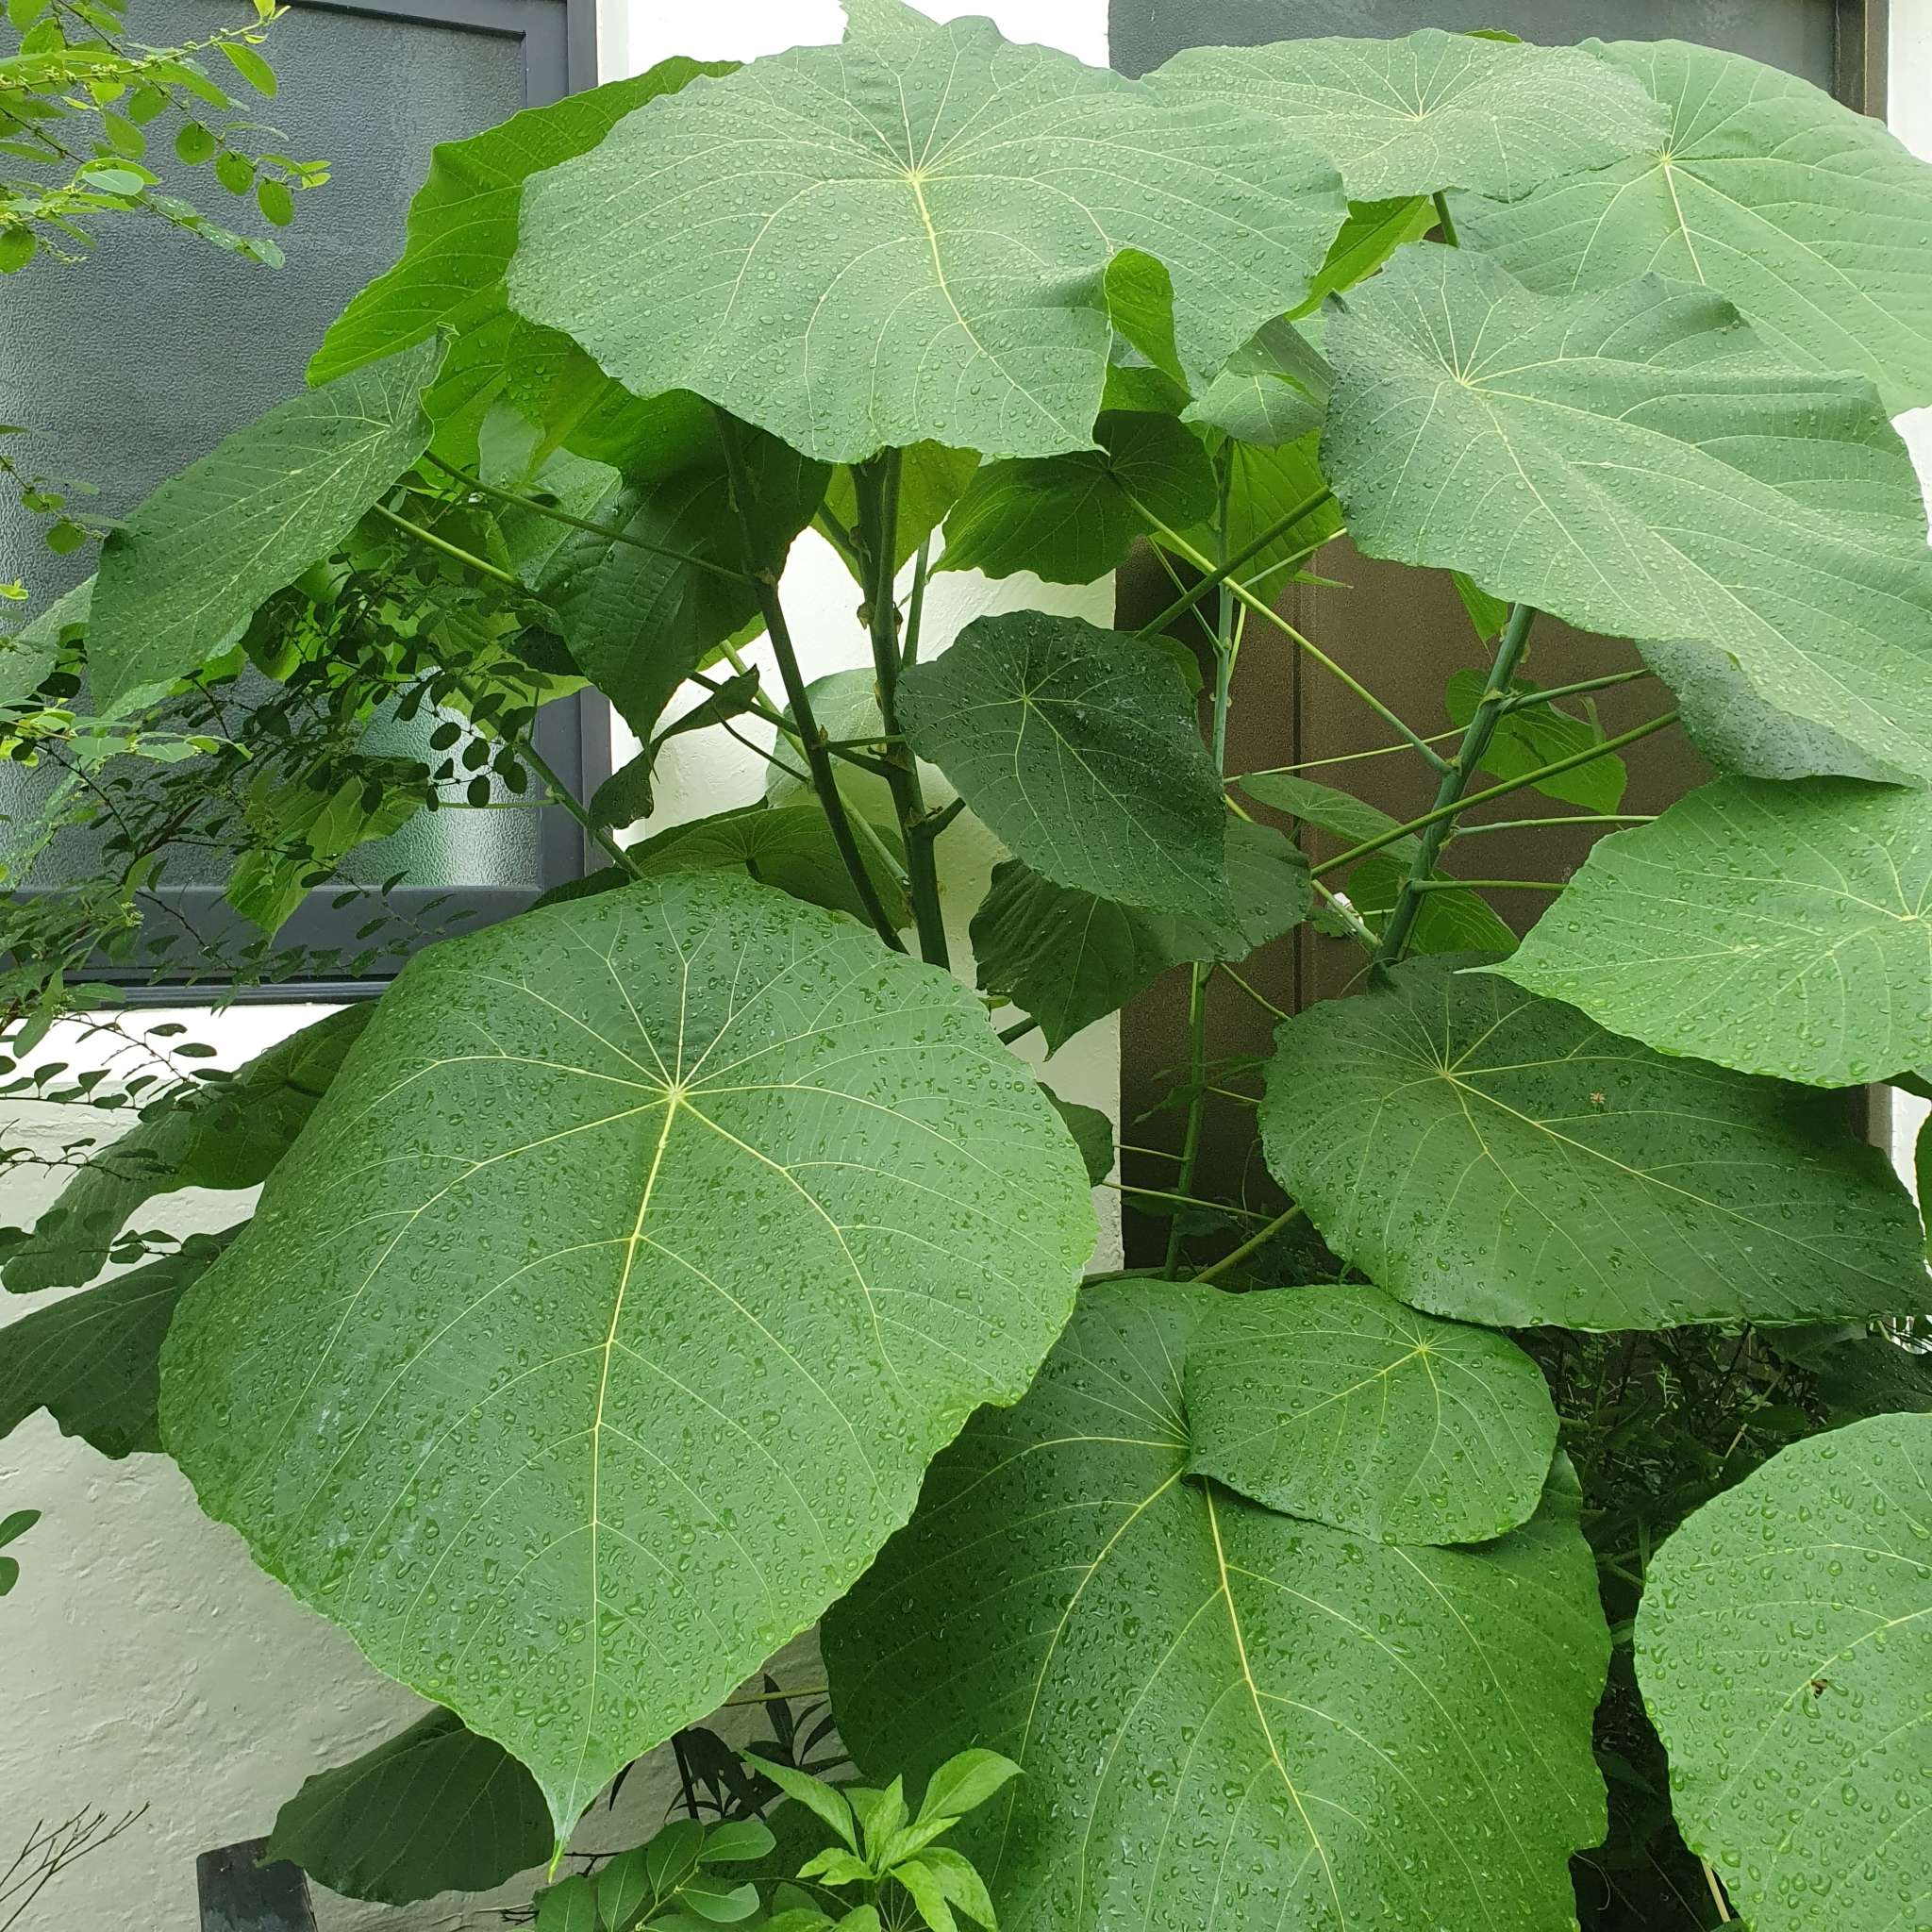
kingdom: Plantae
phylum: Tracheophyta
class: Magnoliopsida
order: Malpighiales
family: Euphorbiaceae
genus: Macaranga
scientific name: Macaranga tanarius
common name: Parasol leaf tree
